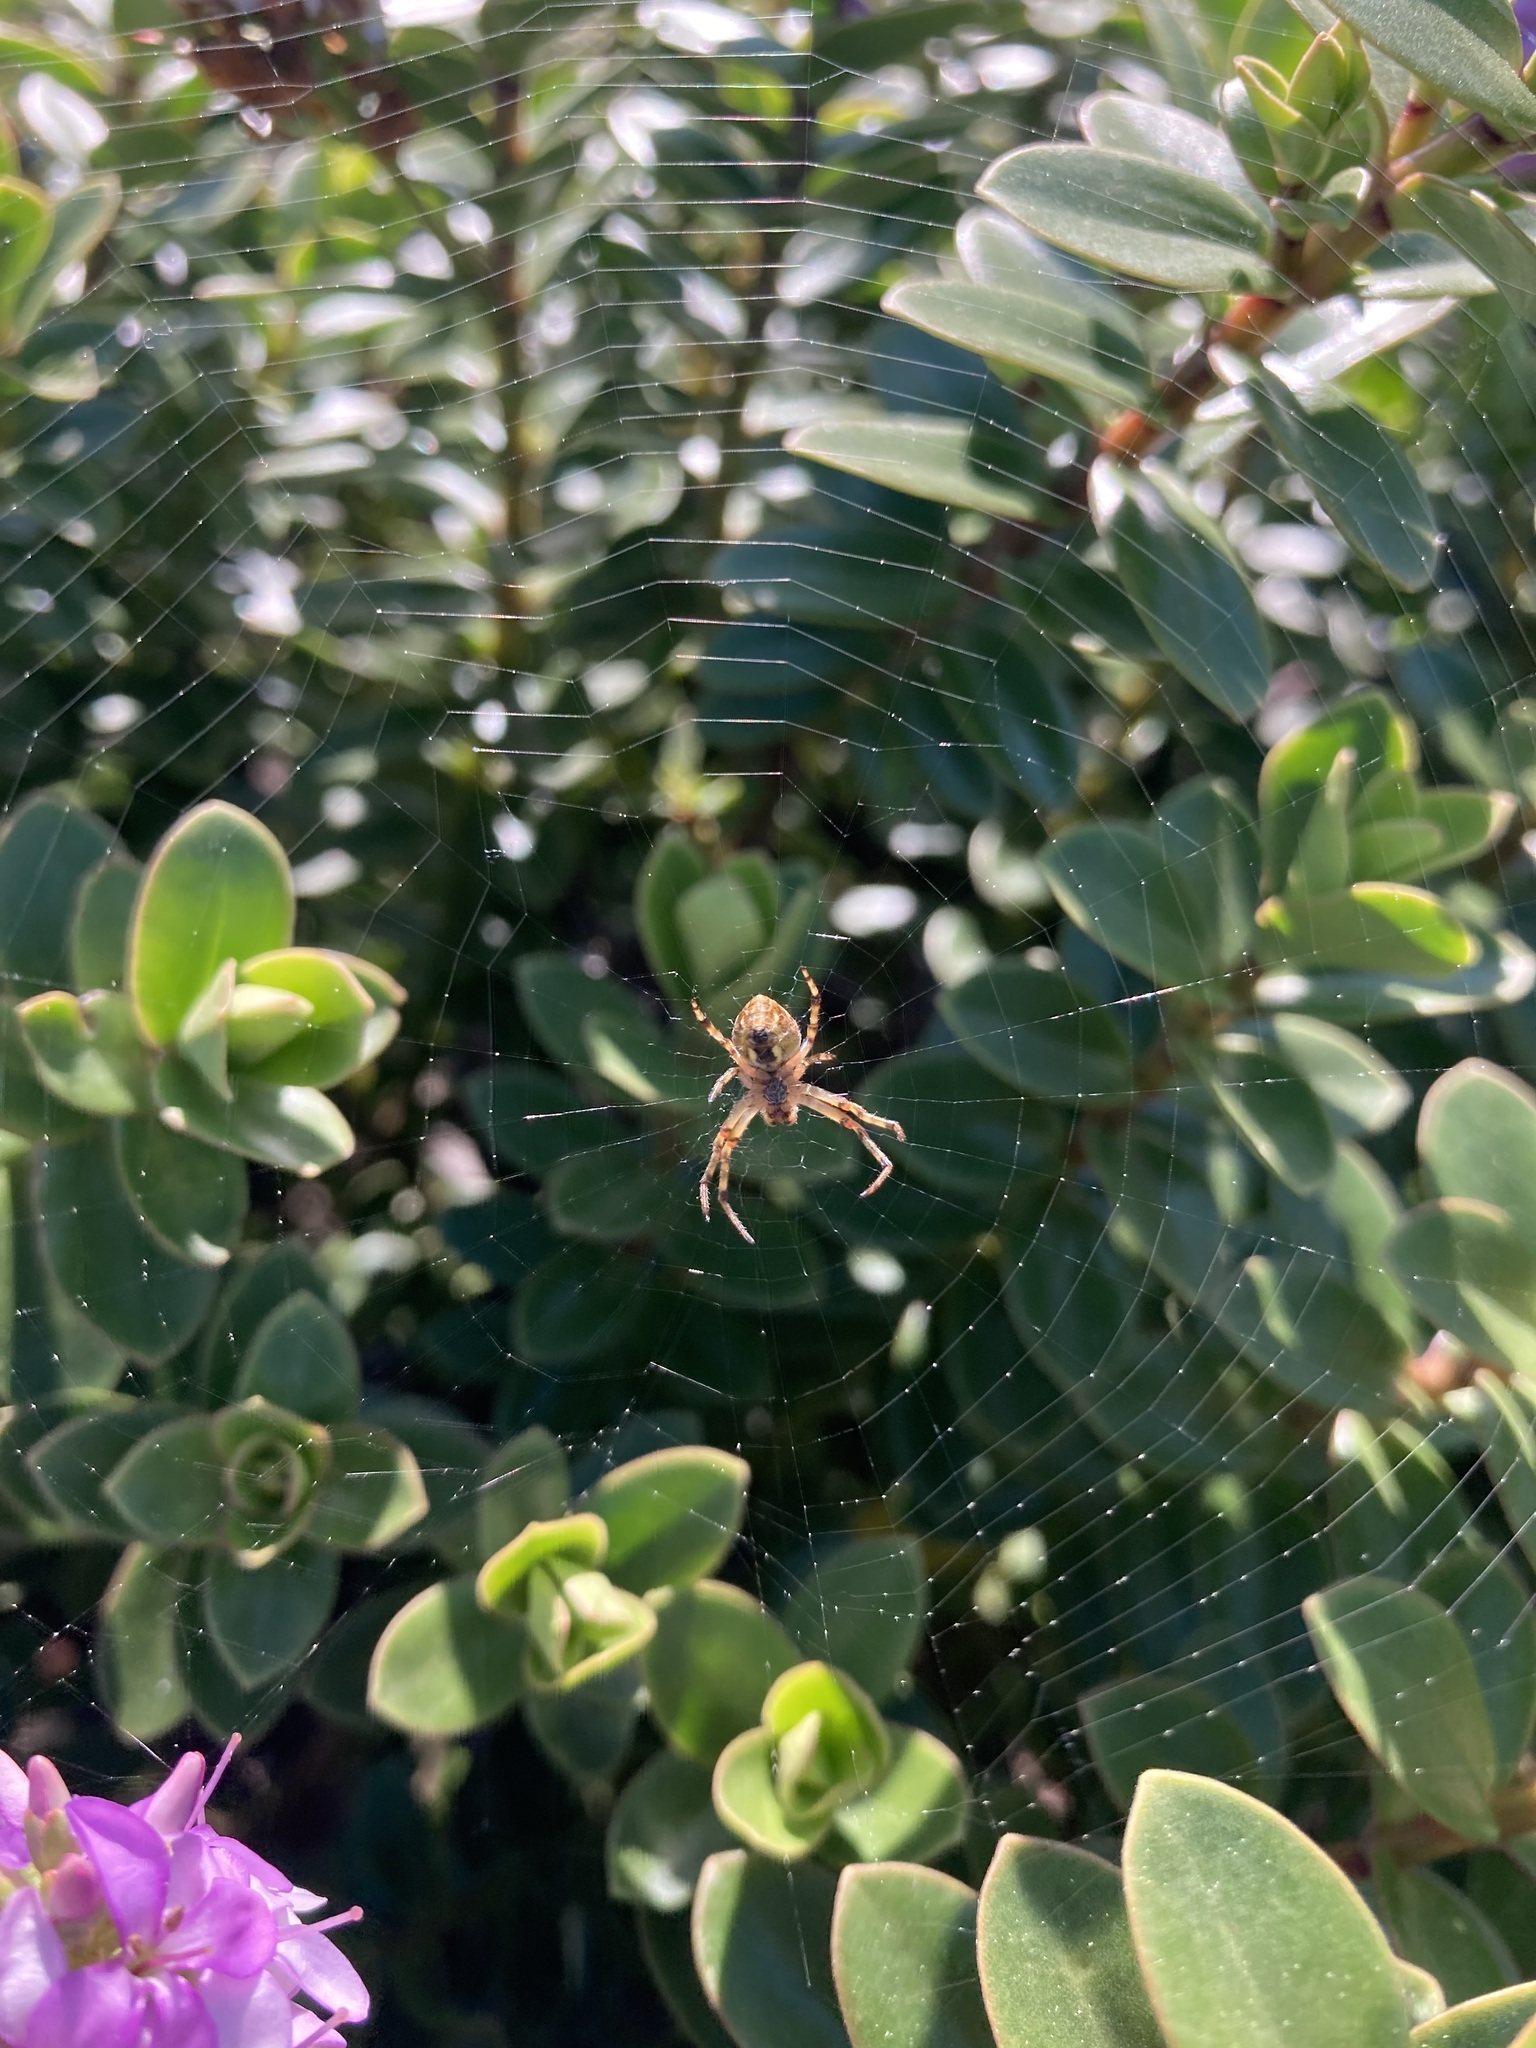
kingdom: Animalia
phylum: Arthropoda
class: Arachnida
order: Araneae
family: Araneidae
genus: Salsa
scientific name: Salsa fuliginata
